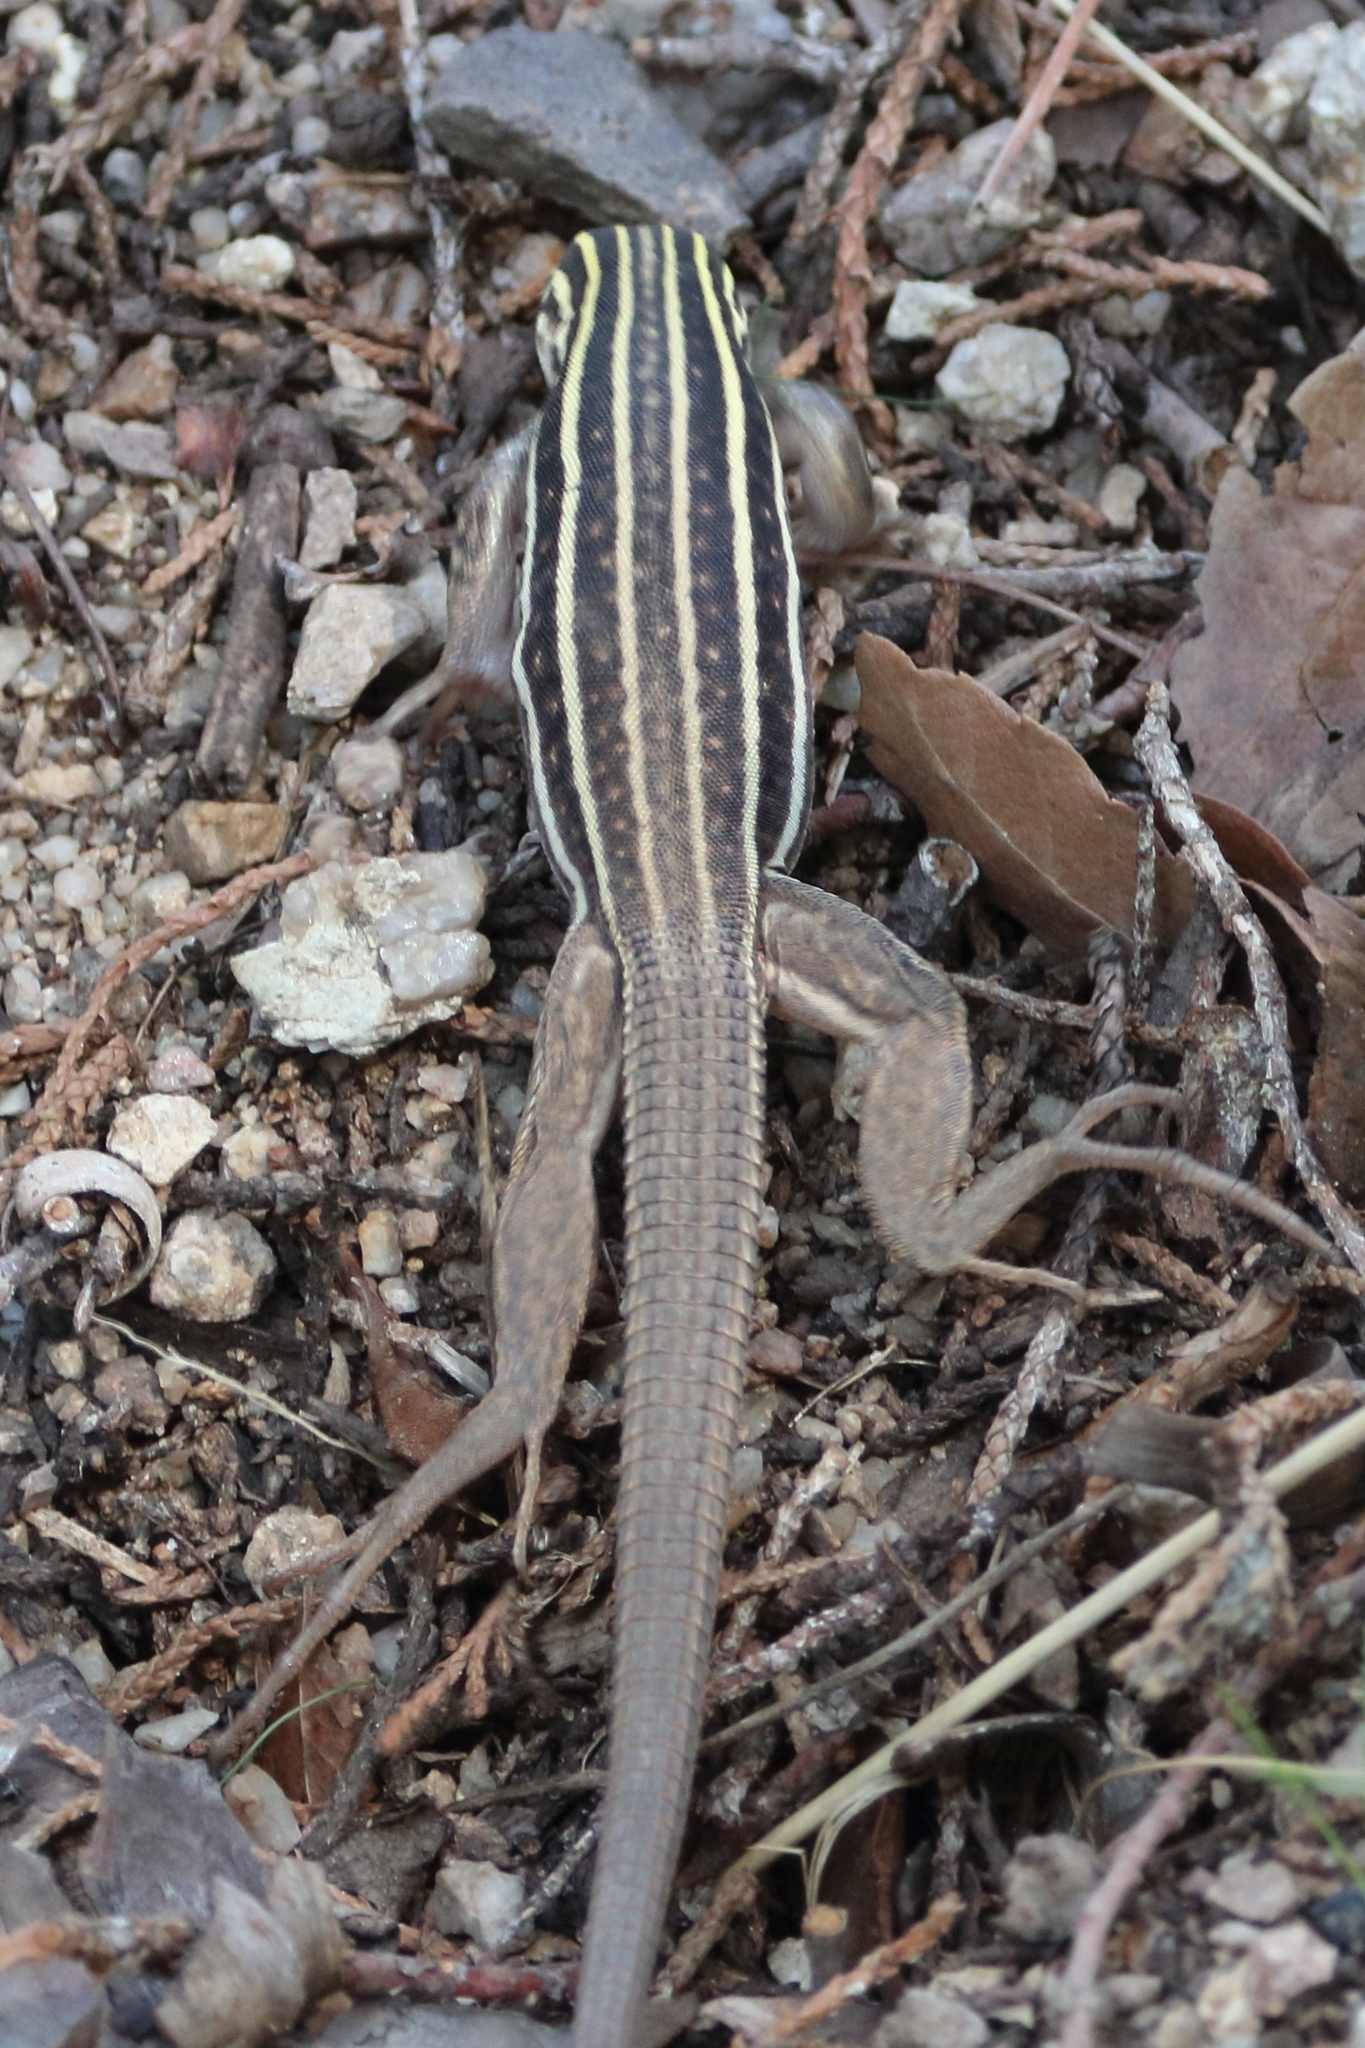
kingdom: Animalia
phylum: Chordata
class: Squamata
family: Teiidae
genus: Aspidoscelis
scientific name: Aspidoscelis sonorae
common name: Sonoran spotted whiptail
